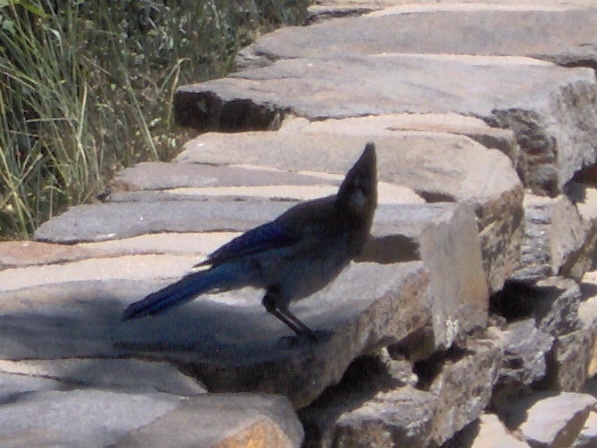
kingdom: Animalia
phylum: Chordata
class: Aves
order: Passeriformes
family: Corvidae
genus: Cyanocitta
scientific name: Cyanocitta stelleri
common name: Steller's jay
